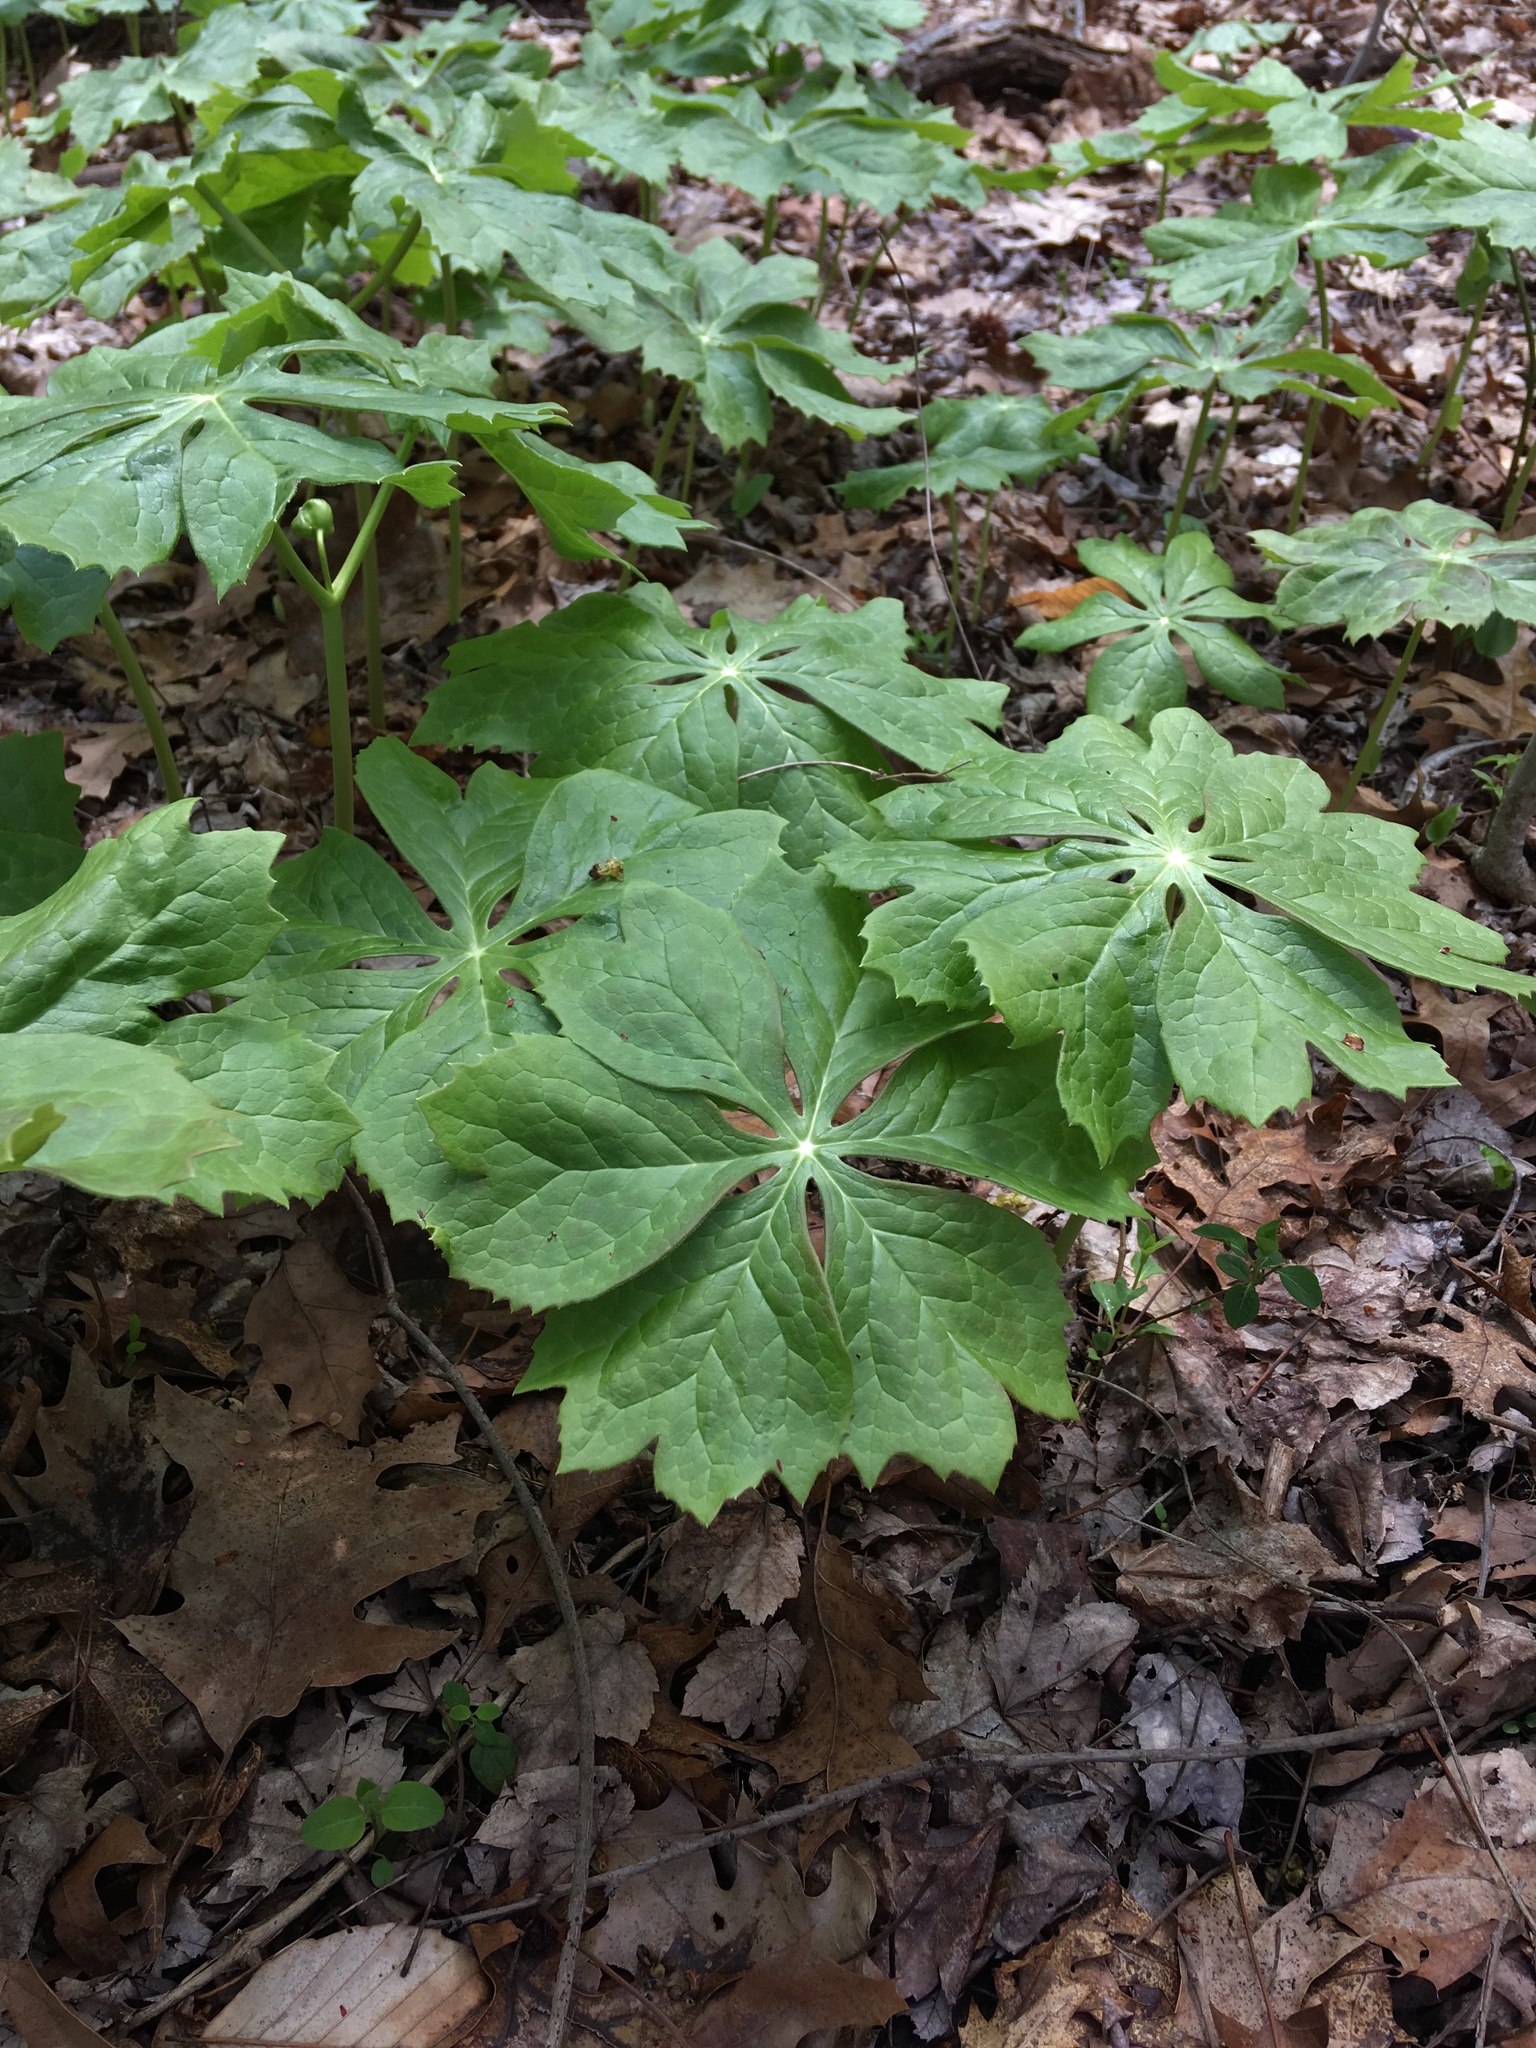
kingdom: Plantae
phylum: Tracheophyta
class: Magnoliopsida
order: Ranunculales
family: Berberidaceae
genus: Podophyllum
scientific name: Podophyllum peltatum
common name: Wild mandrake
